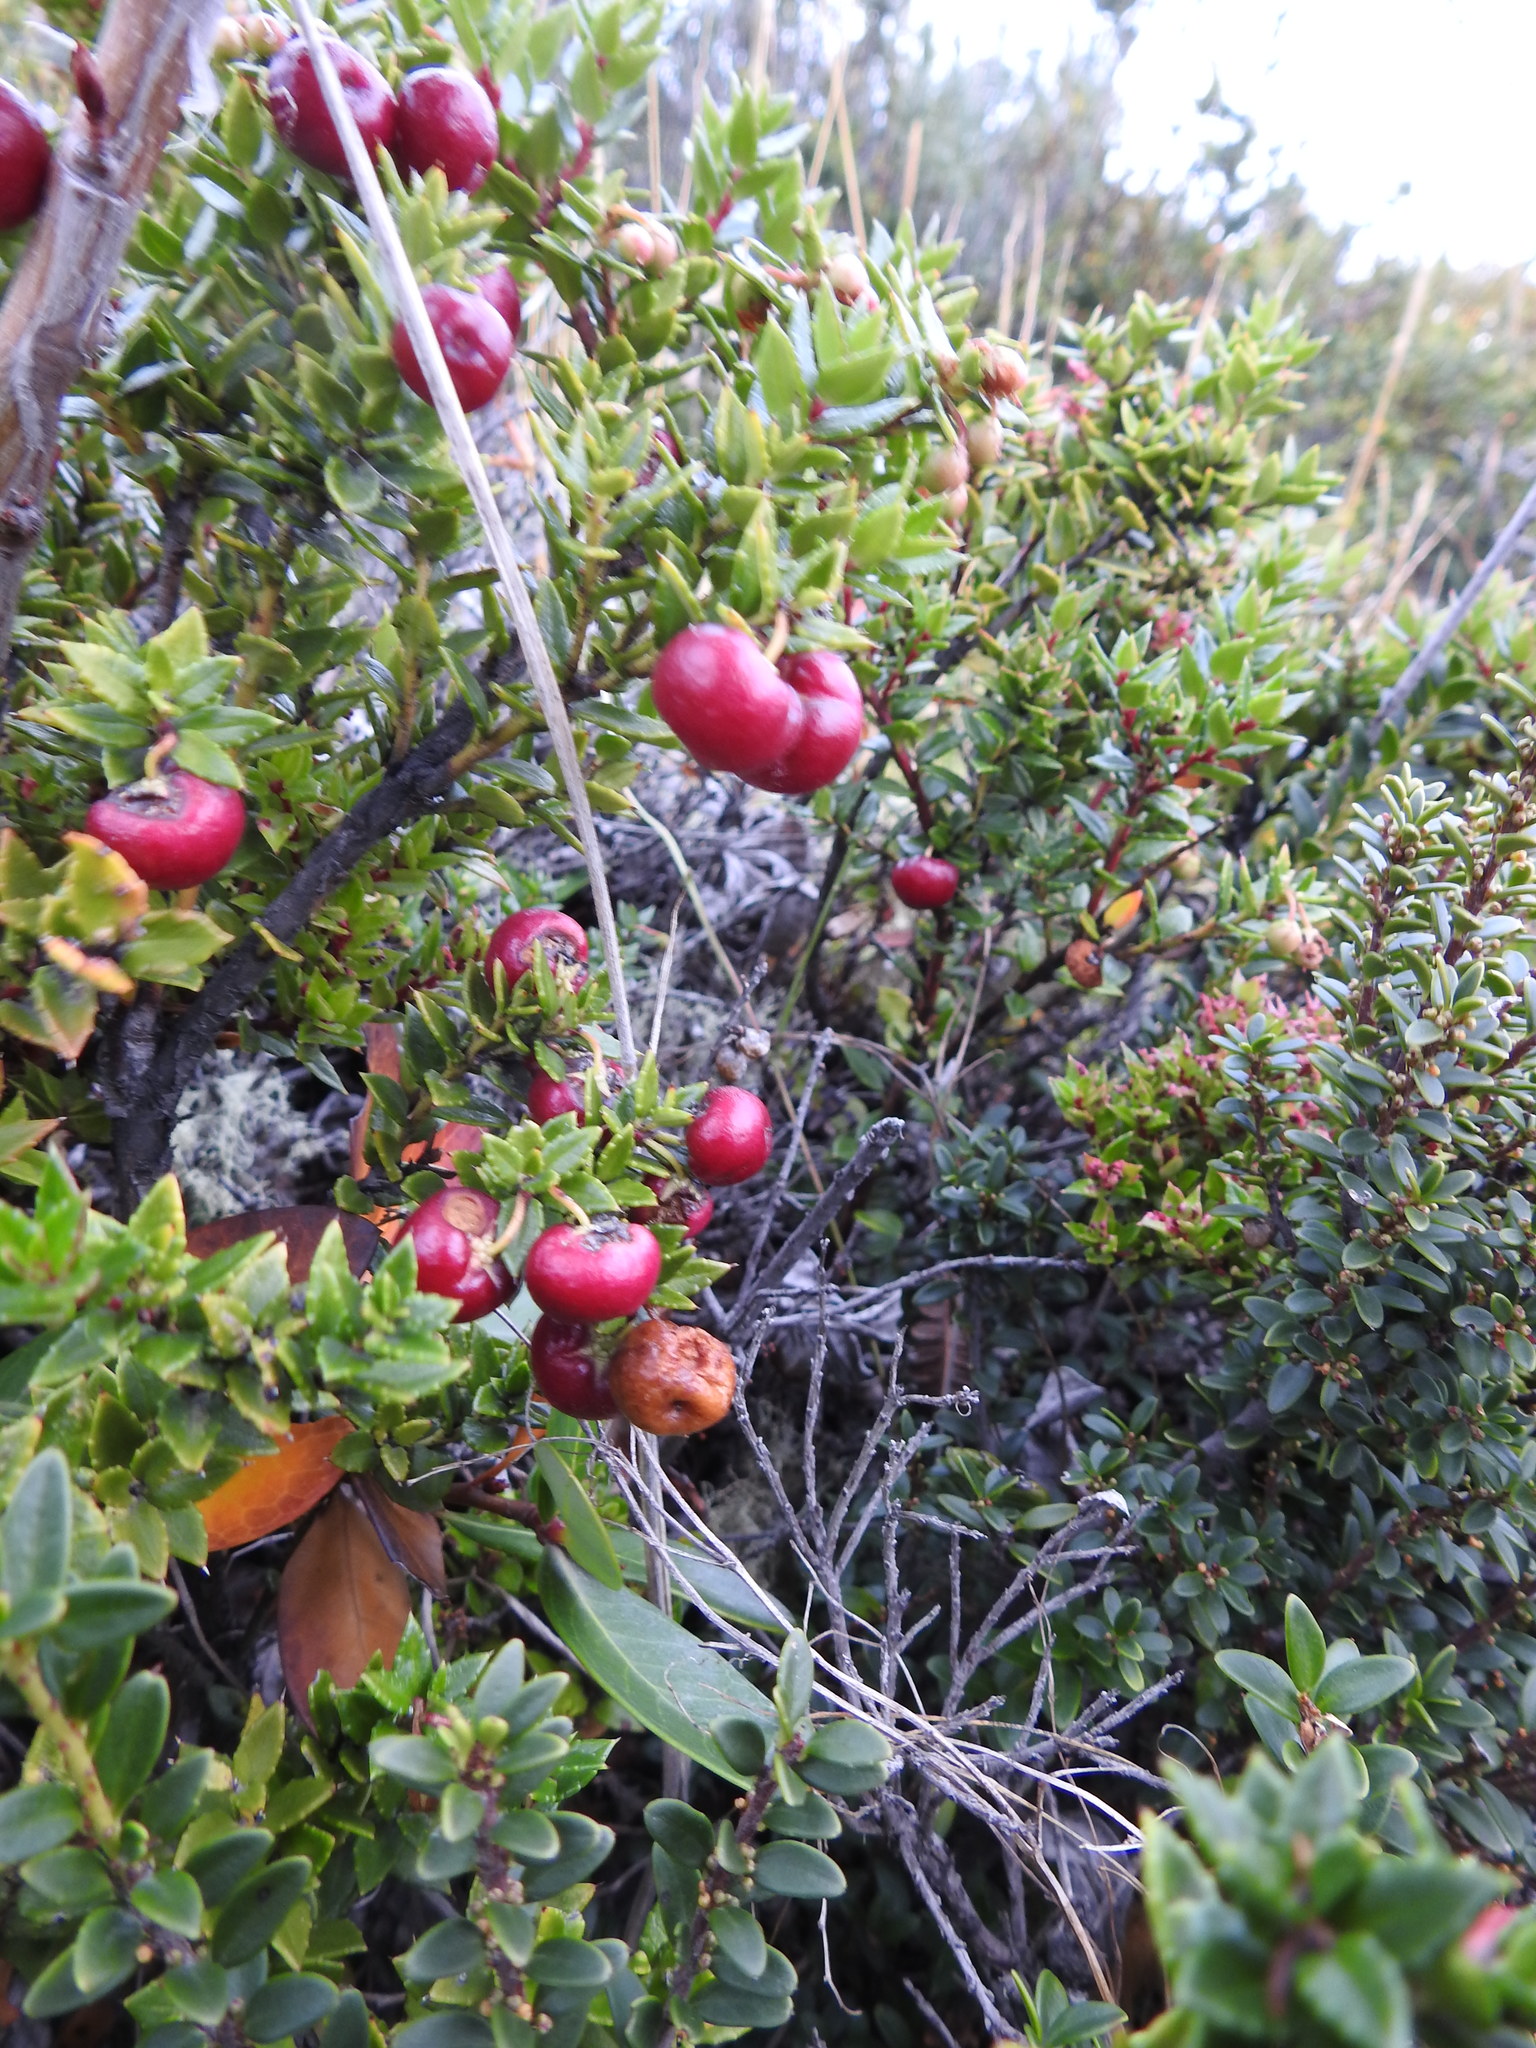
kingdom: Plantae
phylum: Tracheophyta
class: Magnoliopsida
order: Ericales
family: Ericaceae
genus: Gaultheria
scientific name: Gaultheria mucronata
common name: Prickly heath
